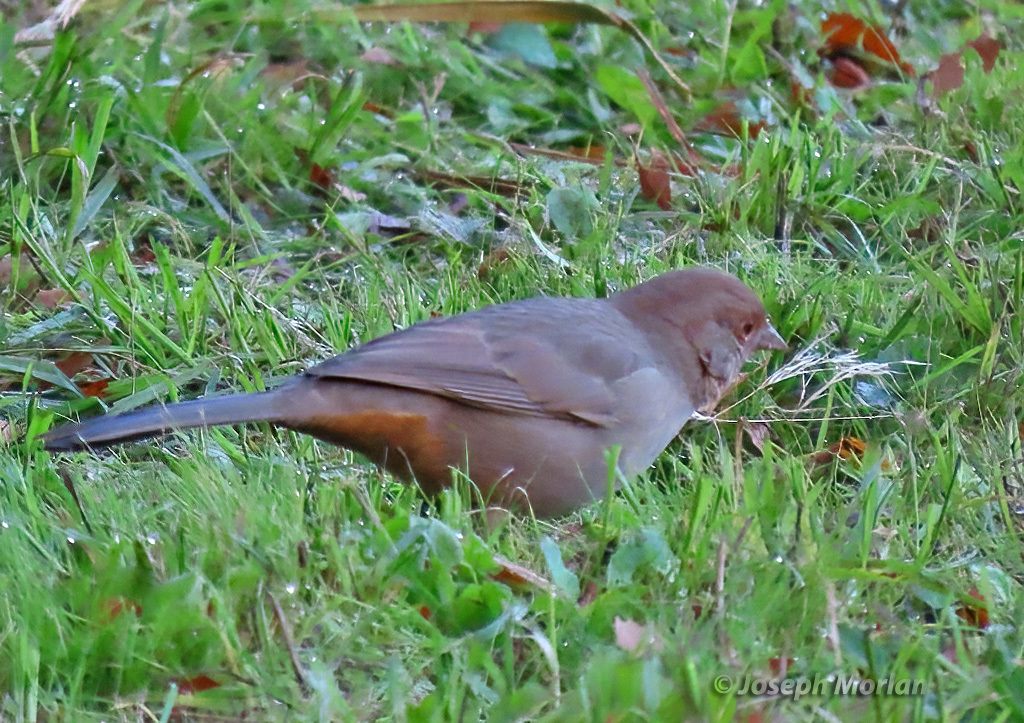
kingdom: Animalia
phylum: Chordata
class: Aves
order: Passeriformes
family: Passerellidae
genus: Melozone
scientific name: Melozone crissalis
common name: California towhee
